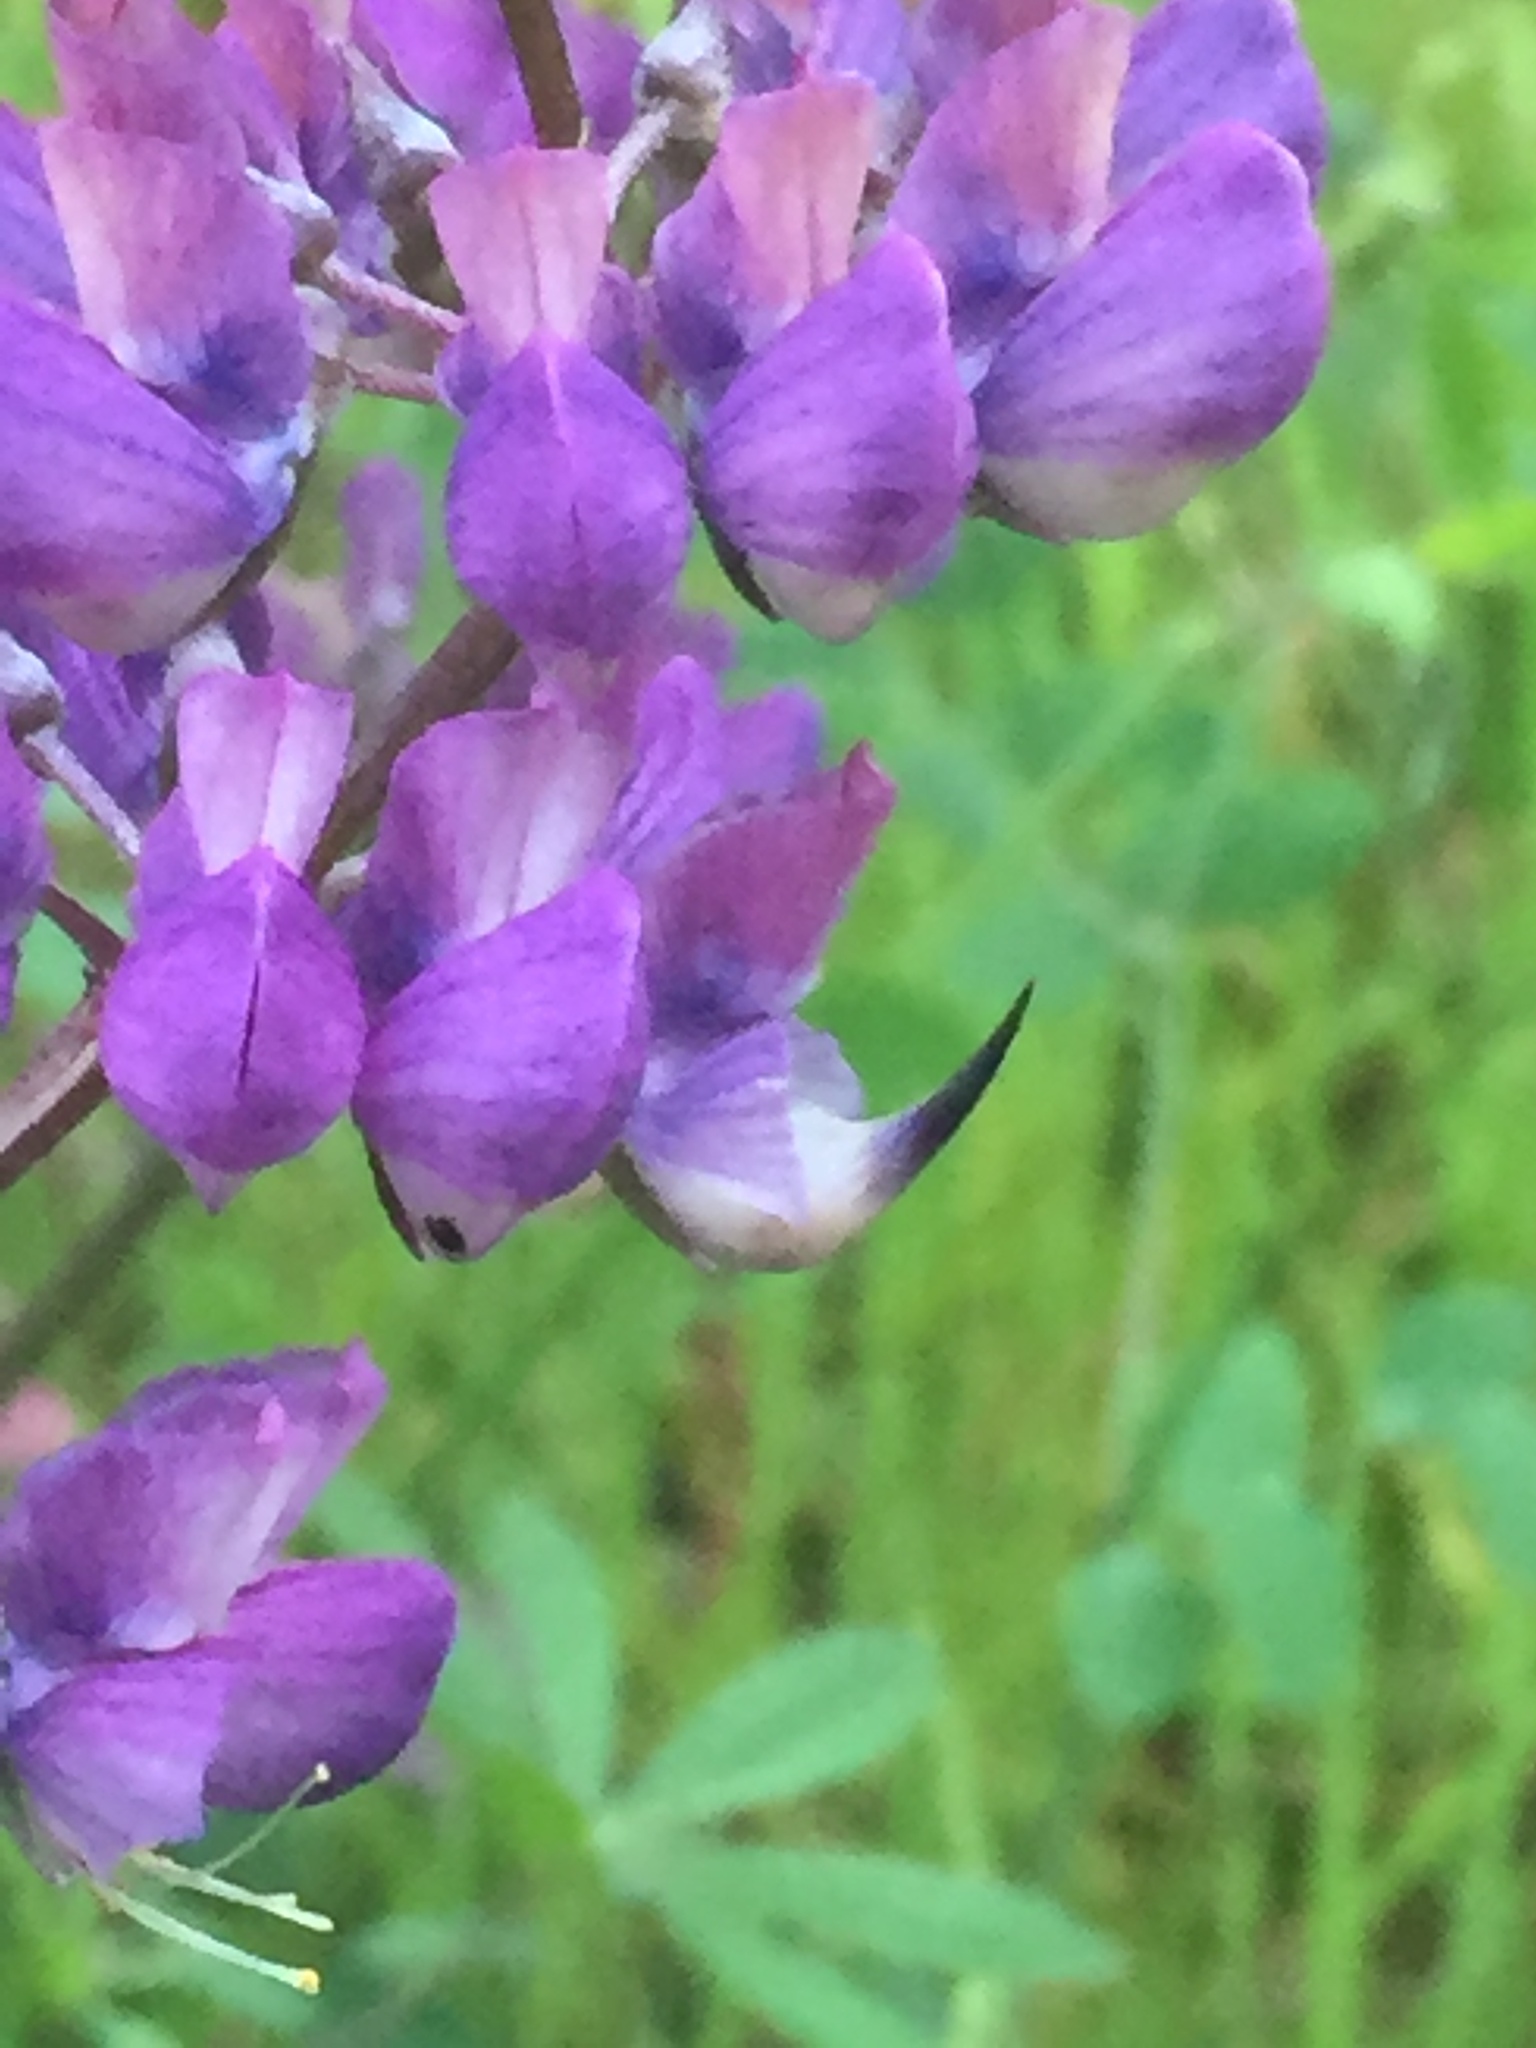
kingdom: Plantae
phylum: Tracheophyta
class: Magnoliopsida
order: Fabales
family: Fabaceae
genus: Lupinus
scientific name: Lupinus albifrons
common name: Foothill lupine
